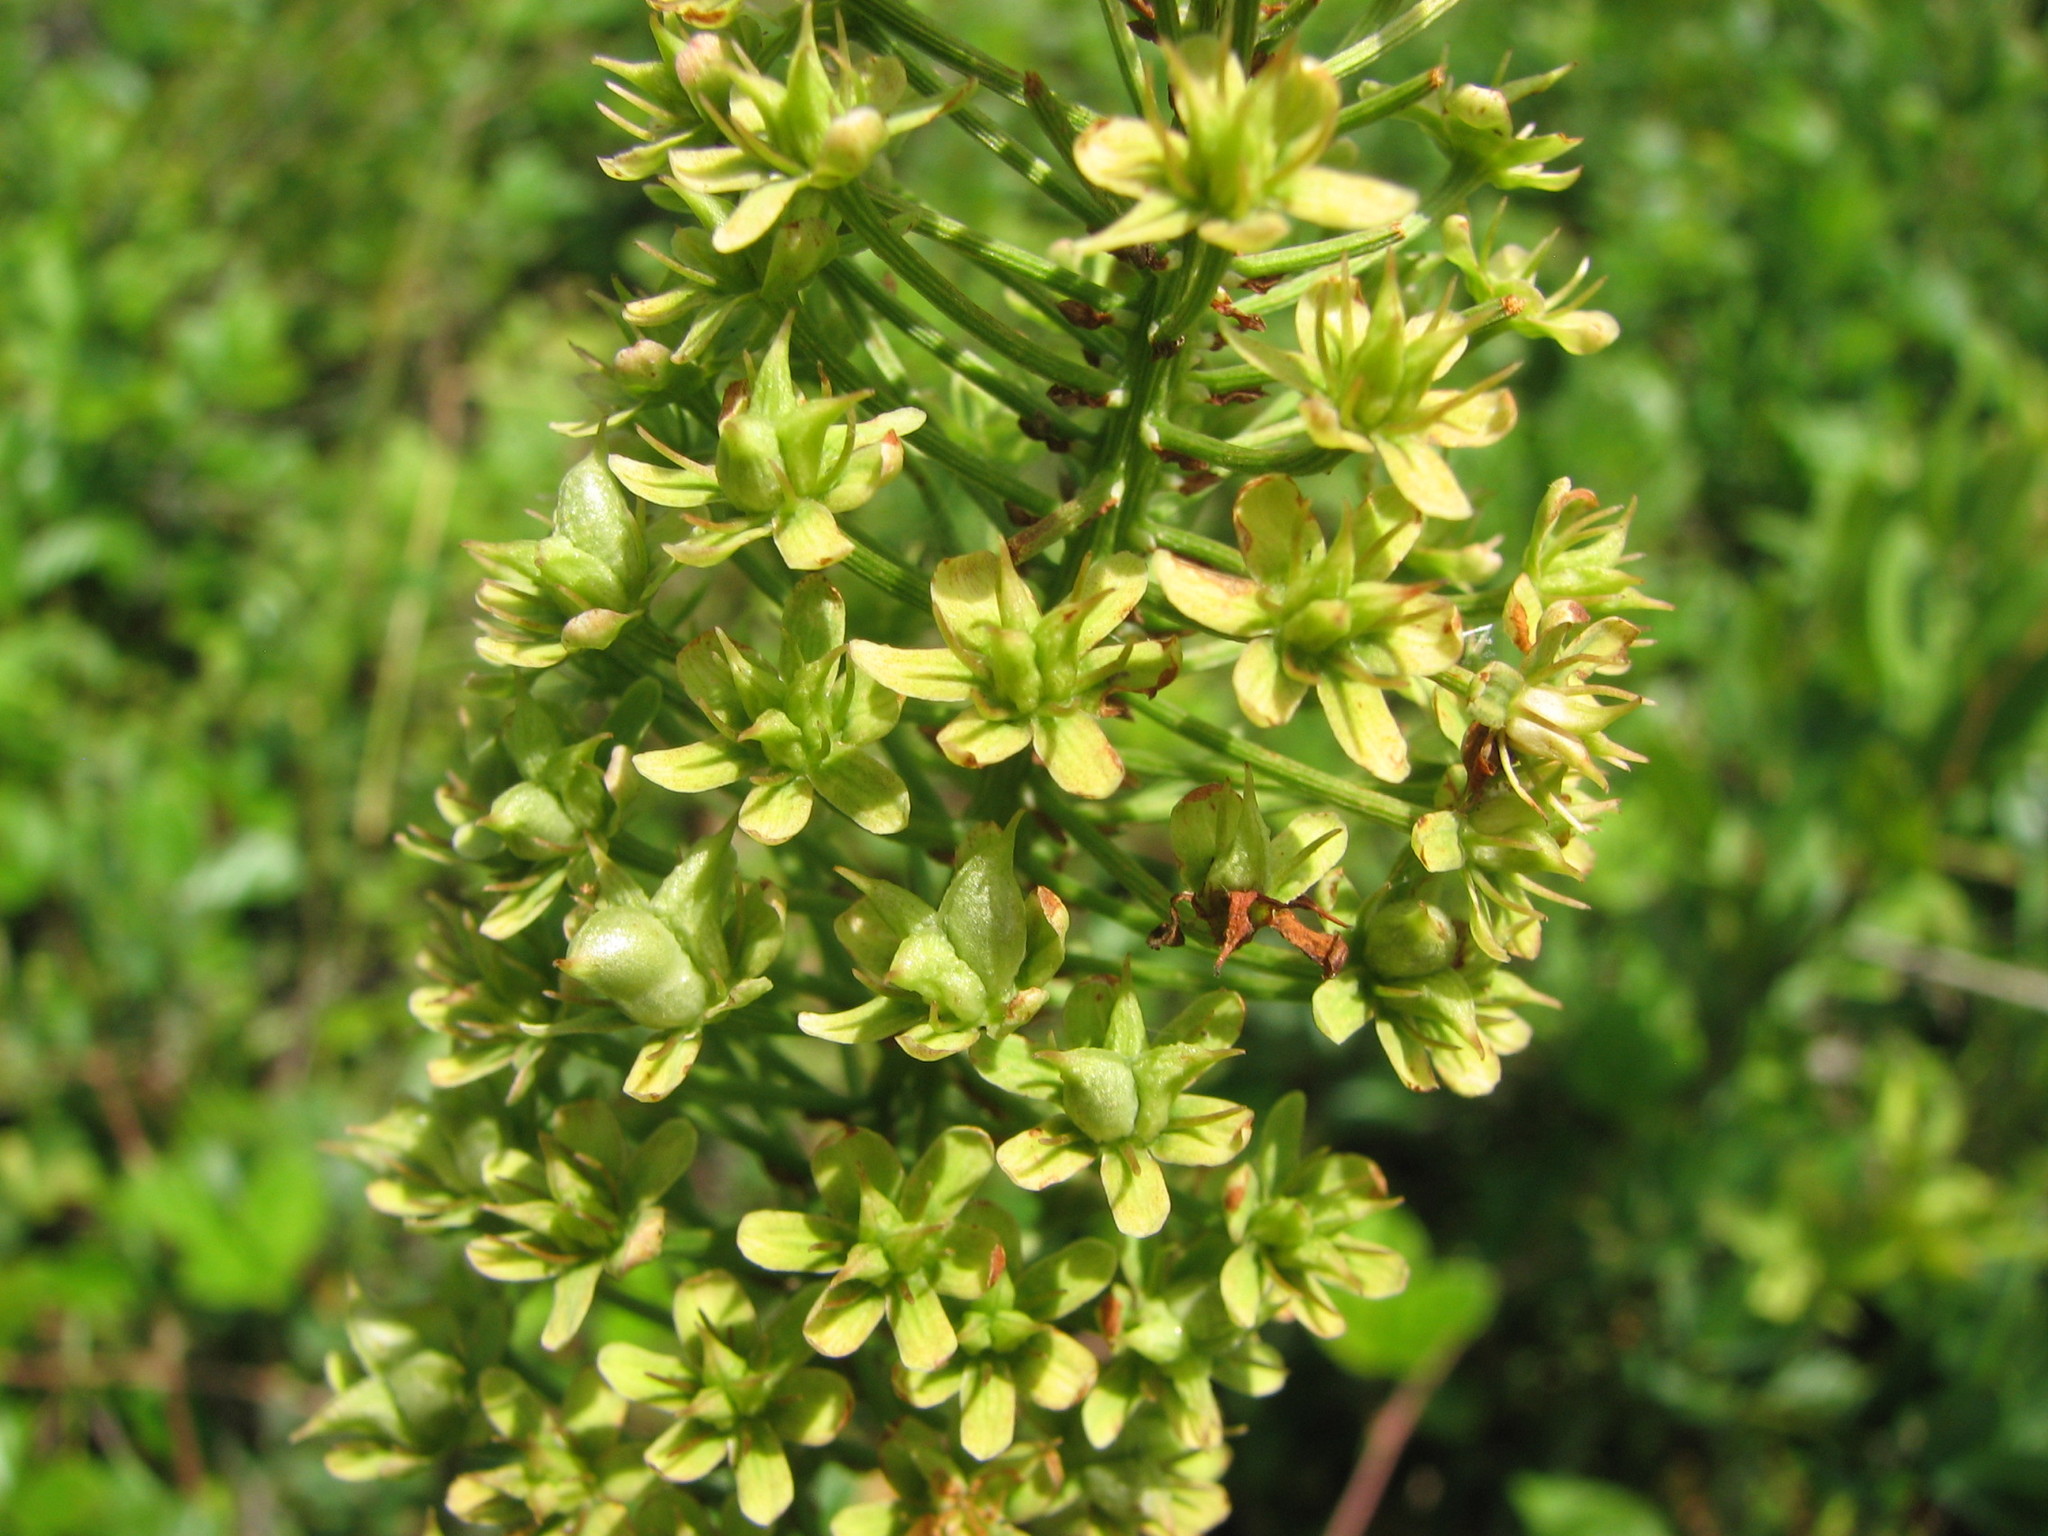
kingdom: Plantae
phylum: Tracheophyta
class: Liliopsida
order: Liliales
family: Melanthiaceae
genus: Amianthium
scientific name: Amianthium muscitoxicum
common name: Fly-poison
